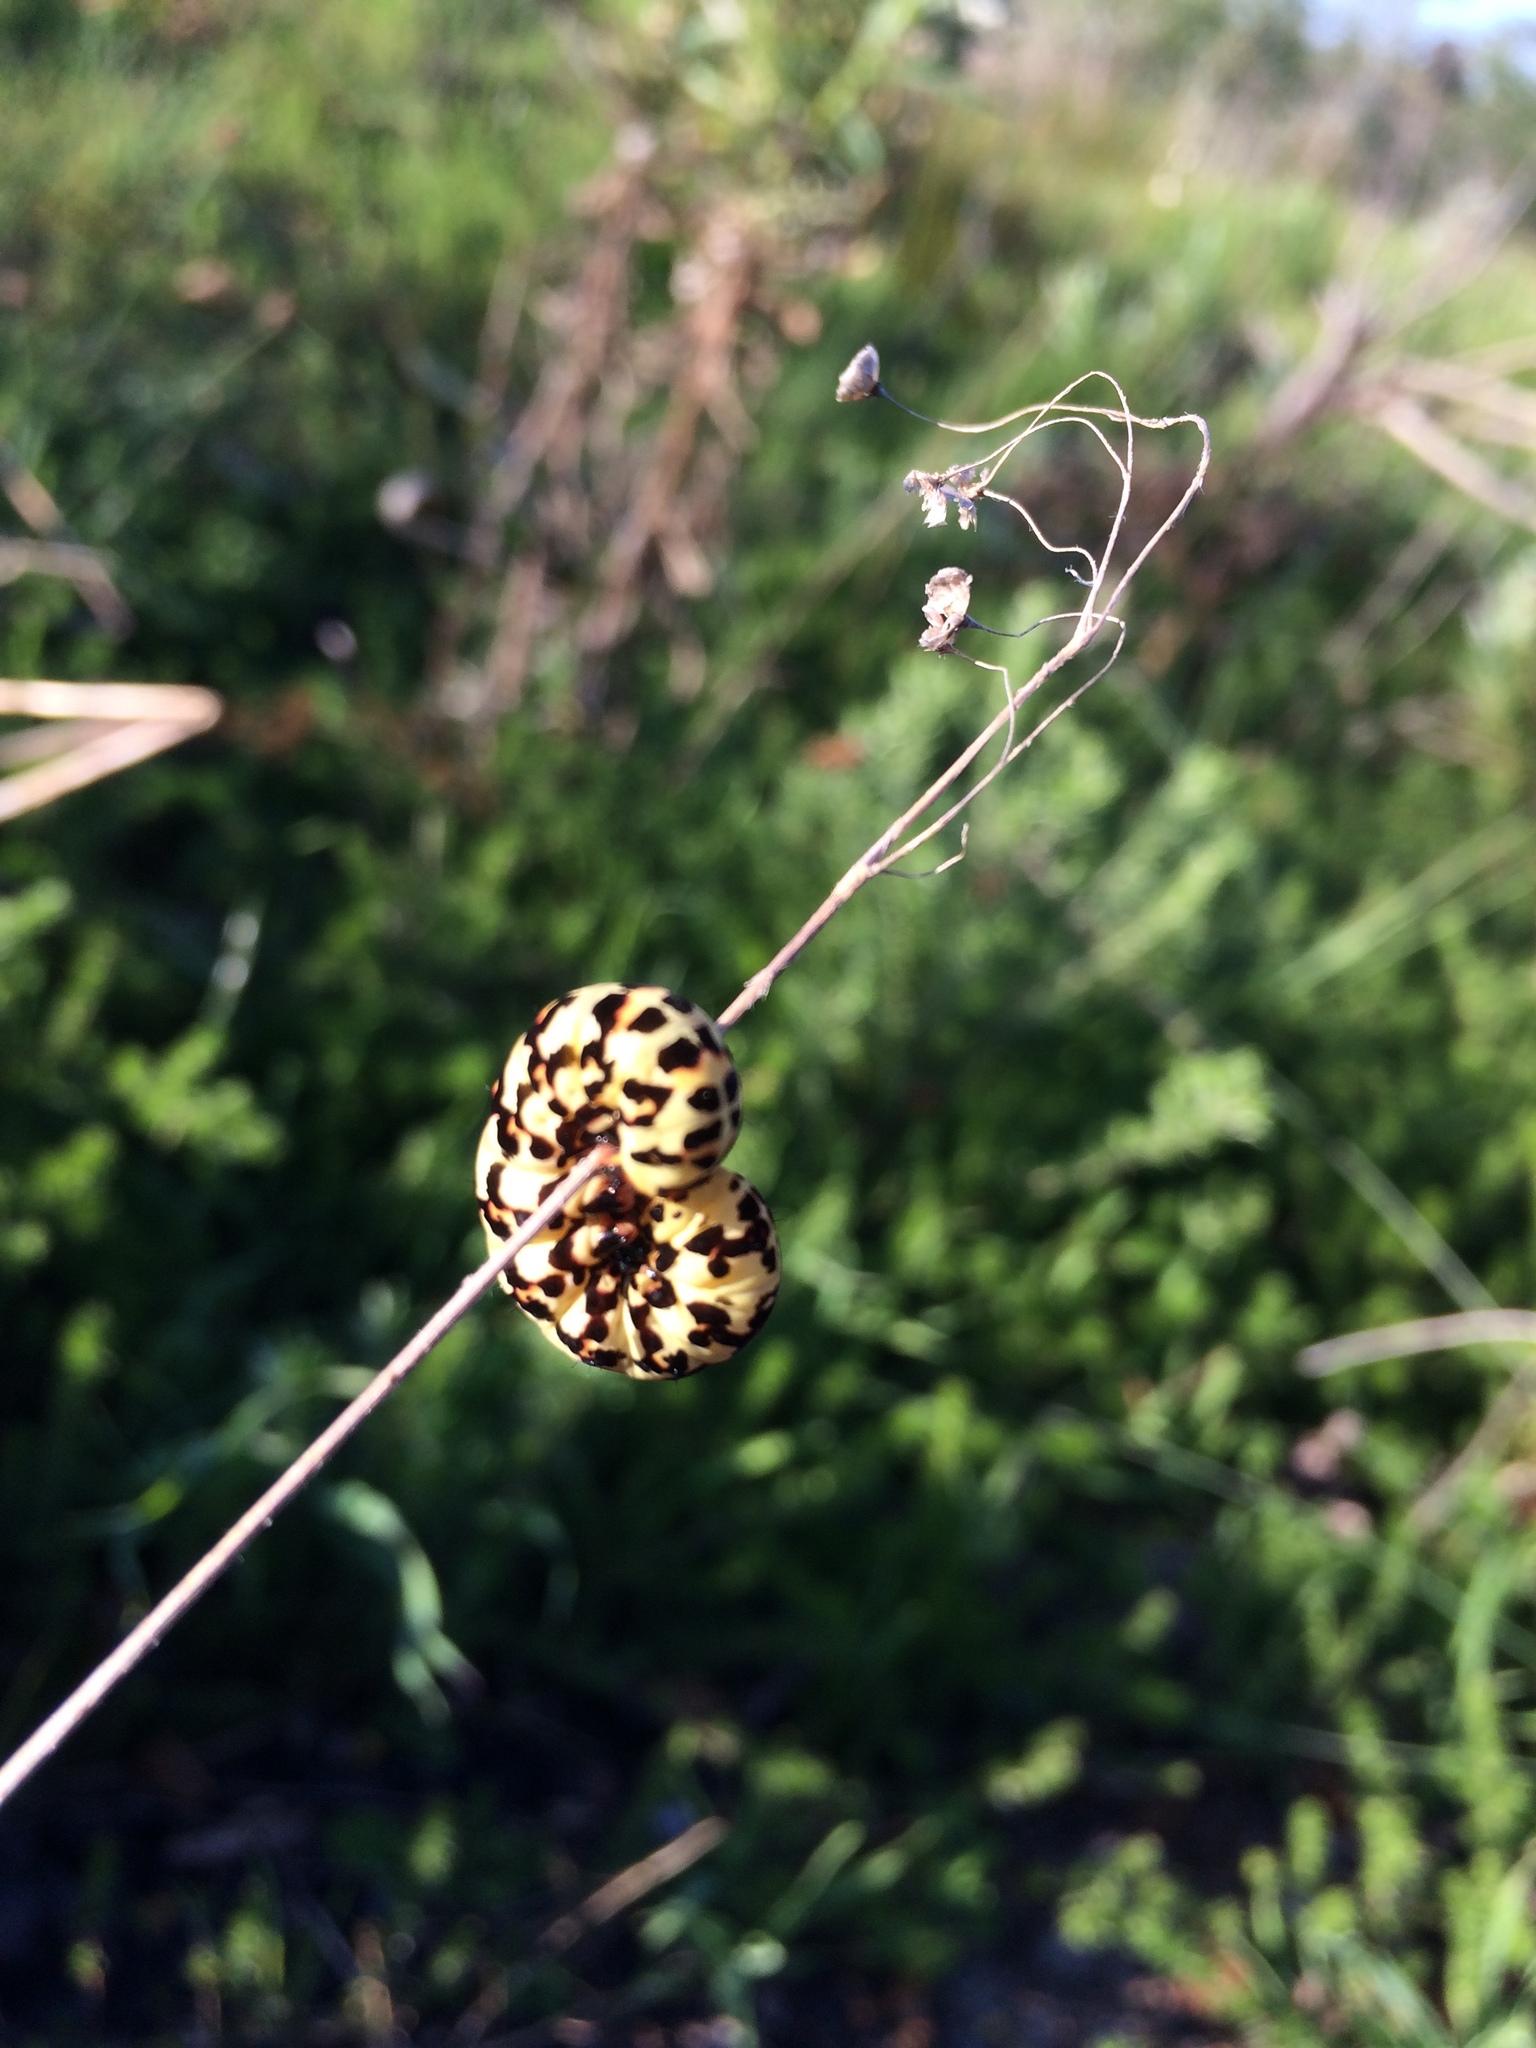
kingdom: Animalia
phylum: Arthropoda
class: Insecta
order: Lepidoptera
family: Noctuidae
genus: Diaphone
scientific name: Diaphone eumela
